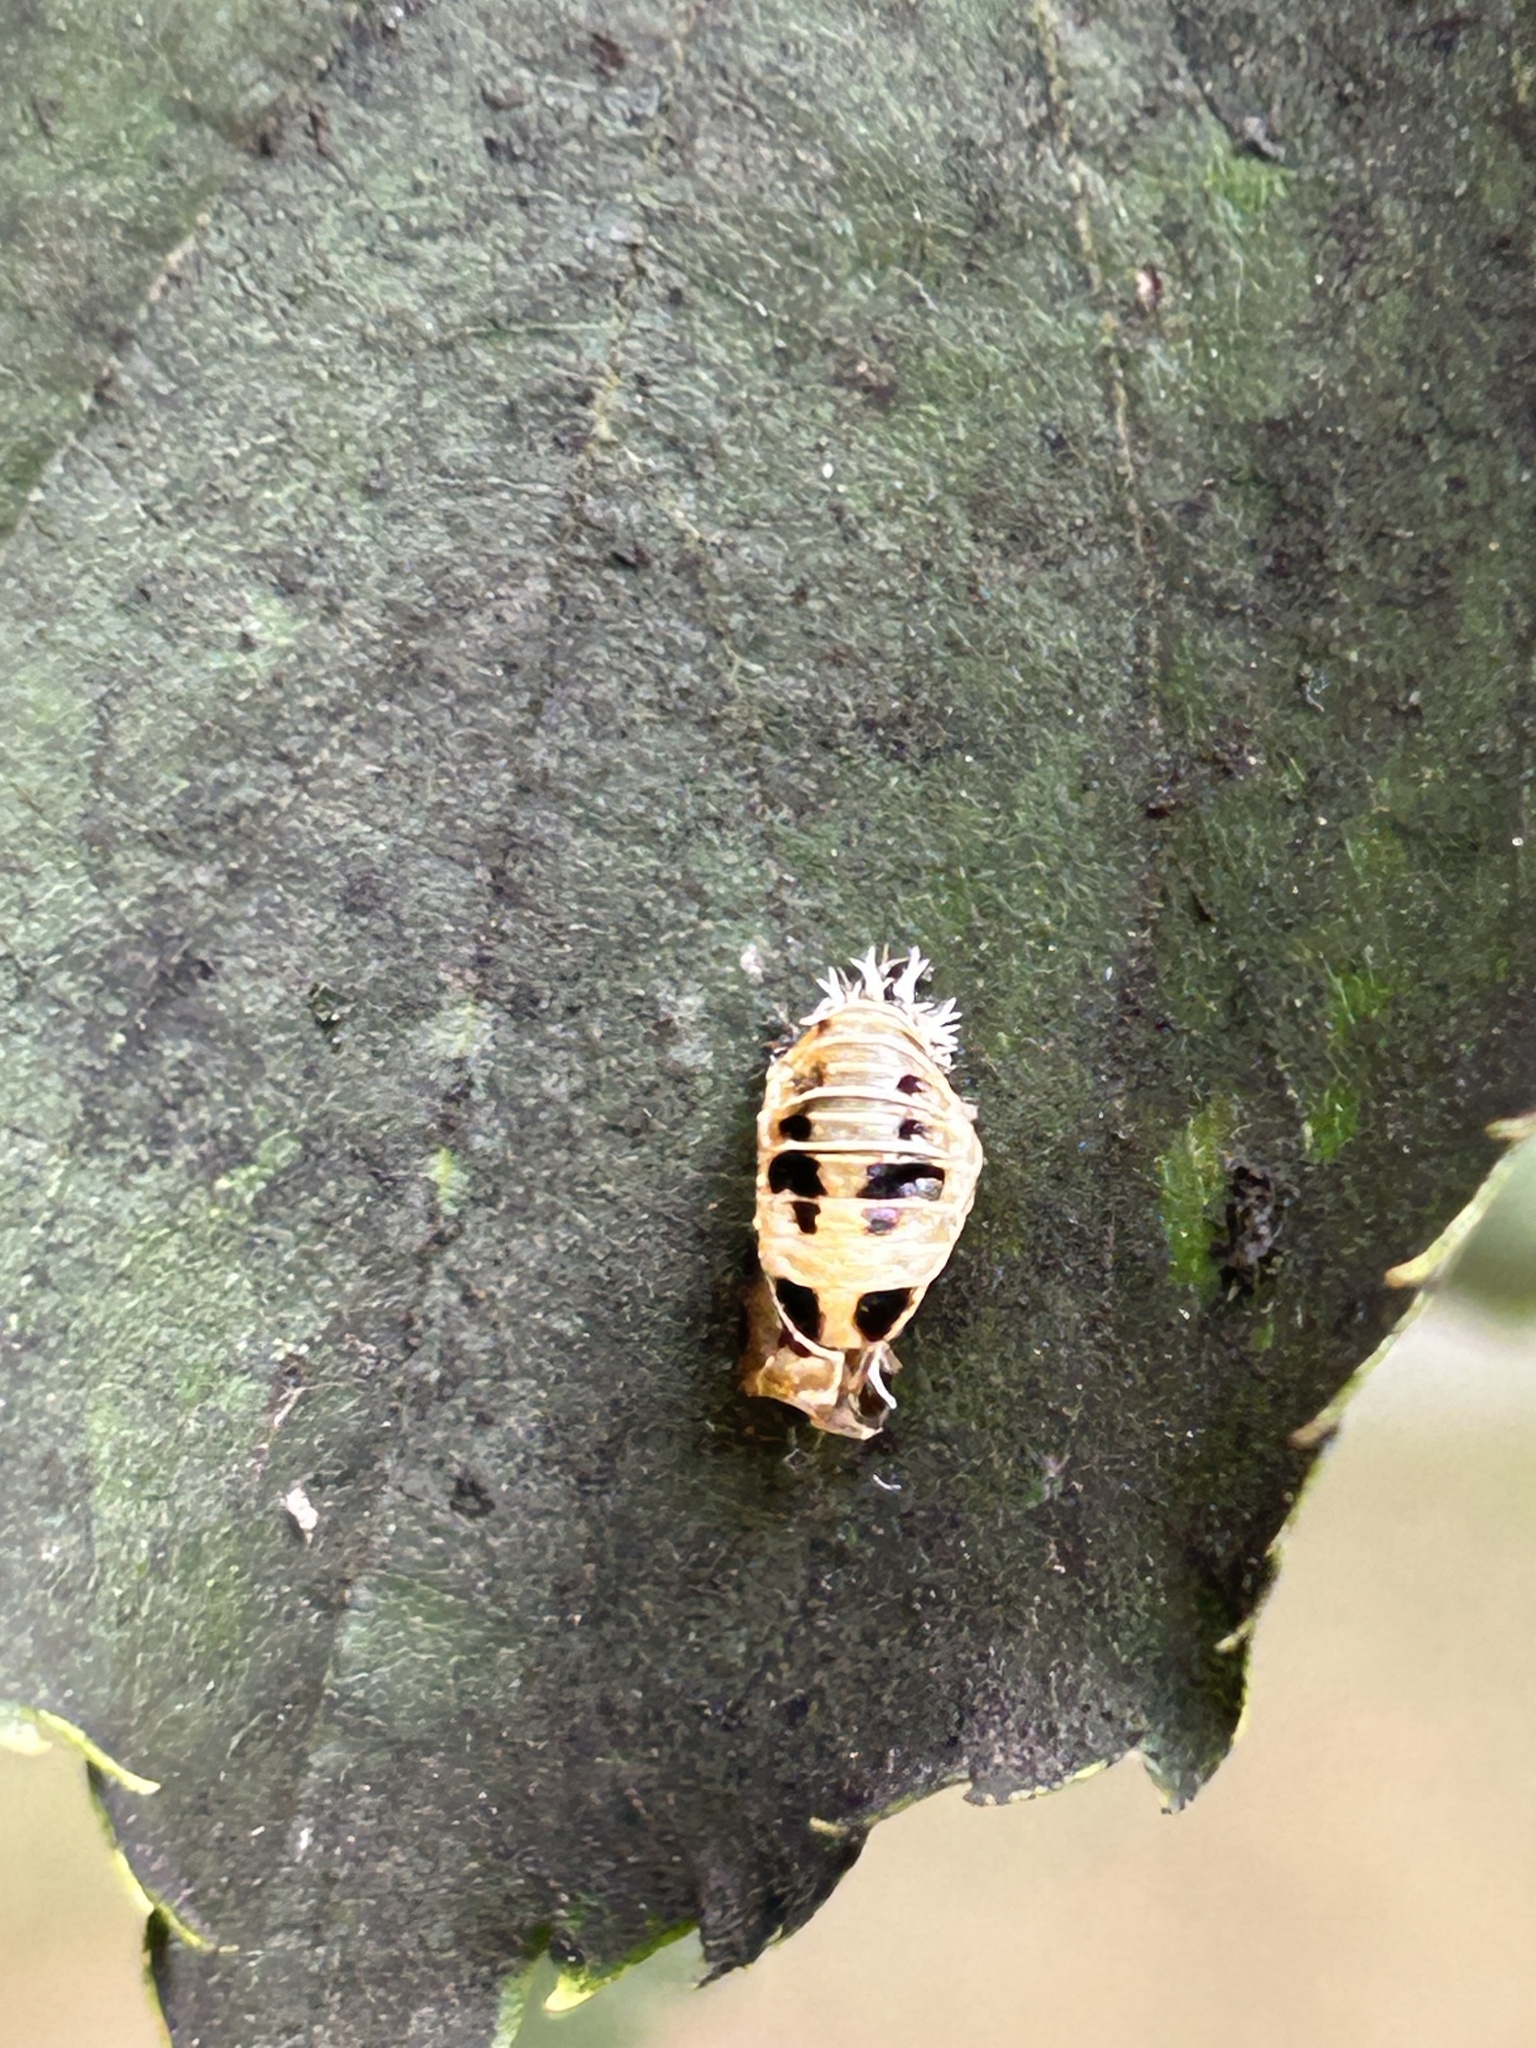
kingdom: Animalia
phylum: Arthropoda
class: Insecta
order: Coleoptera
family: Coccinellidae
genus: Harmonia
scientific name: Harmonia axyridis
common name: Harlequin ladybird
